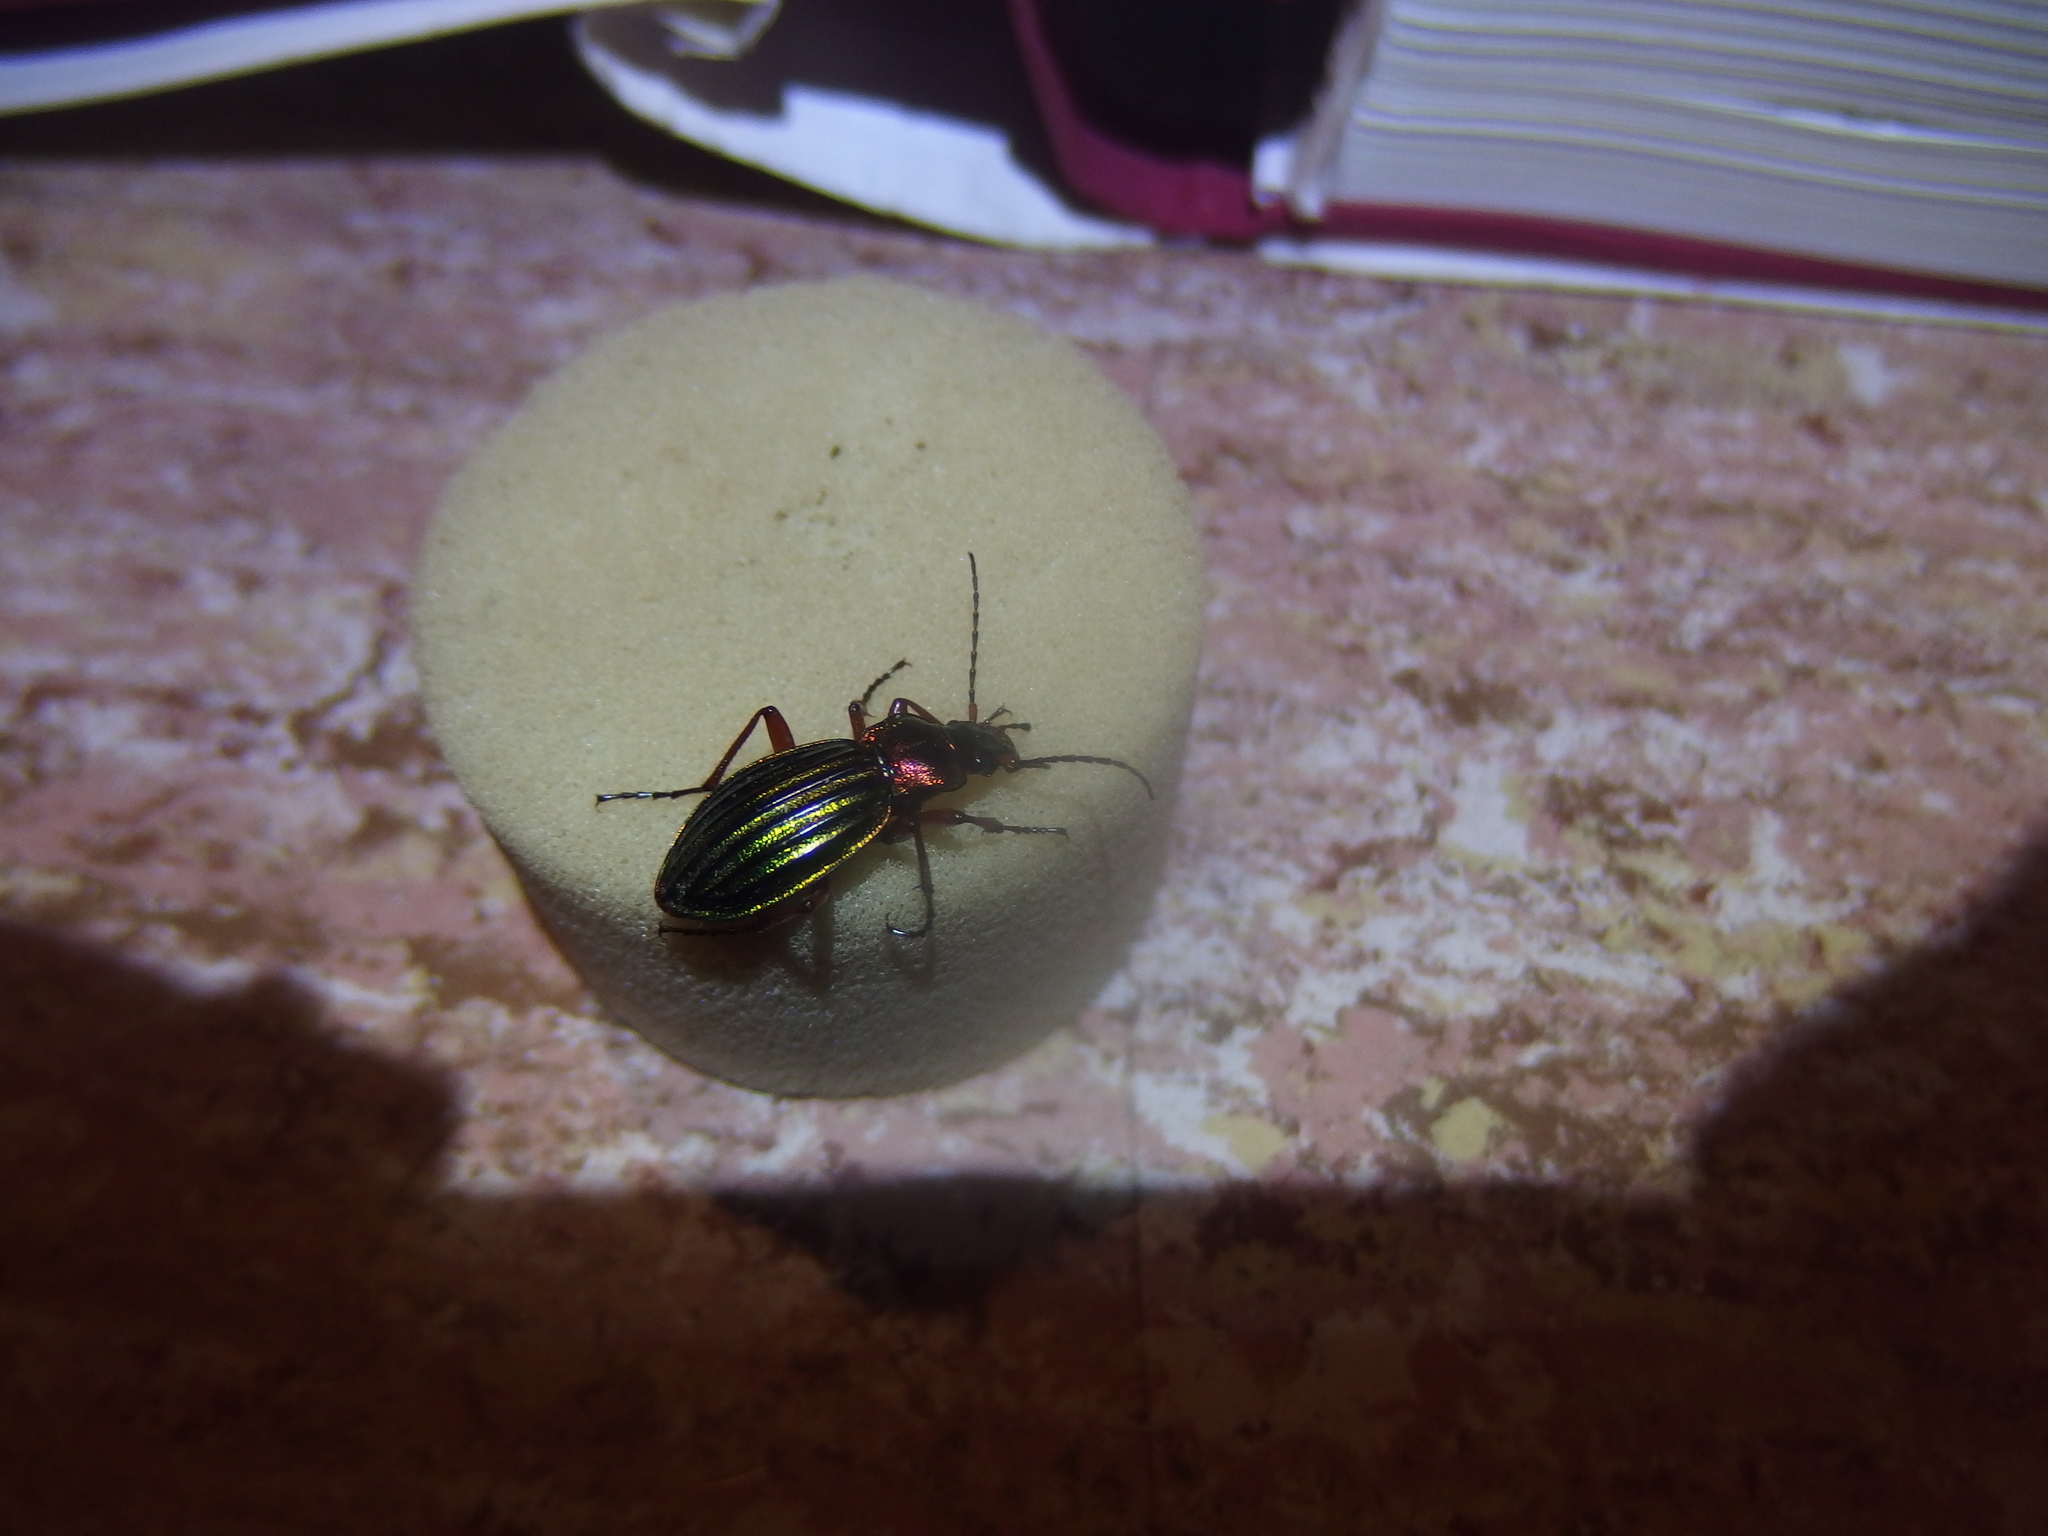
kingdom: Animalia
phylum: Arthropoda
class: Insecta
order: Coleoptera
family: Carabidae
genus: Carabus
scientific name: Carabus auronitens
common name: Carabus auronitens
